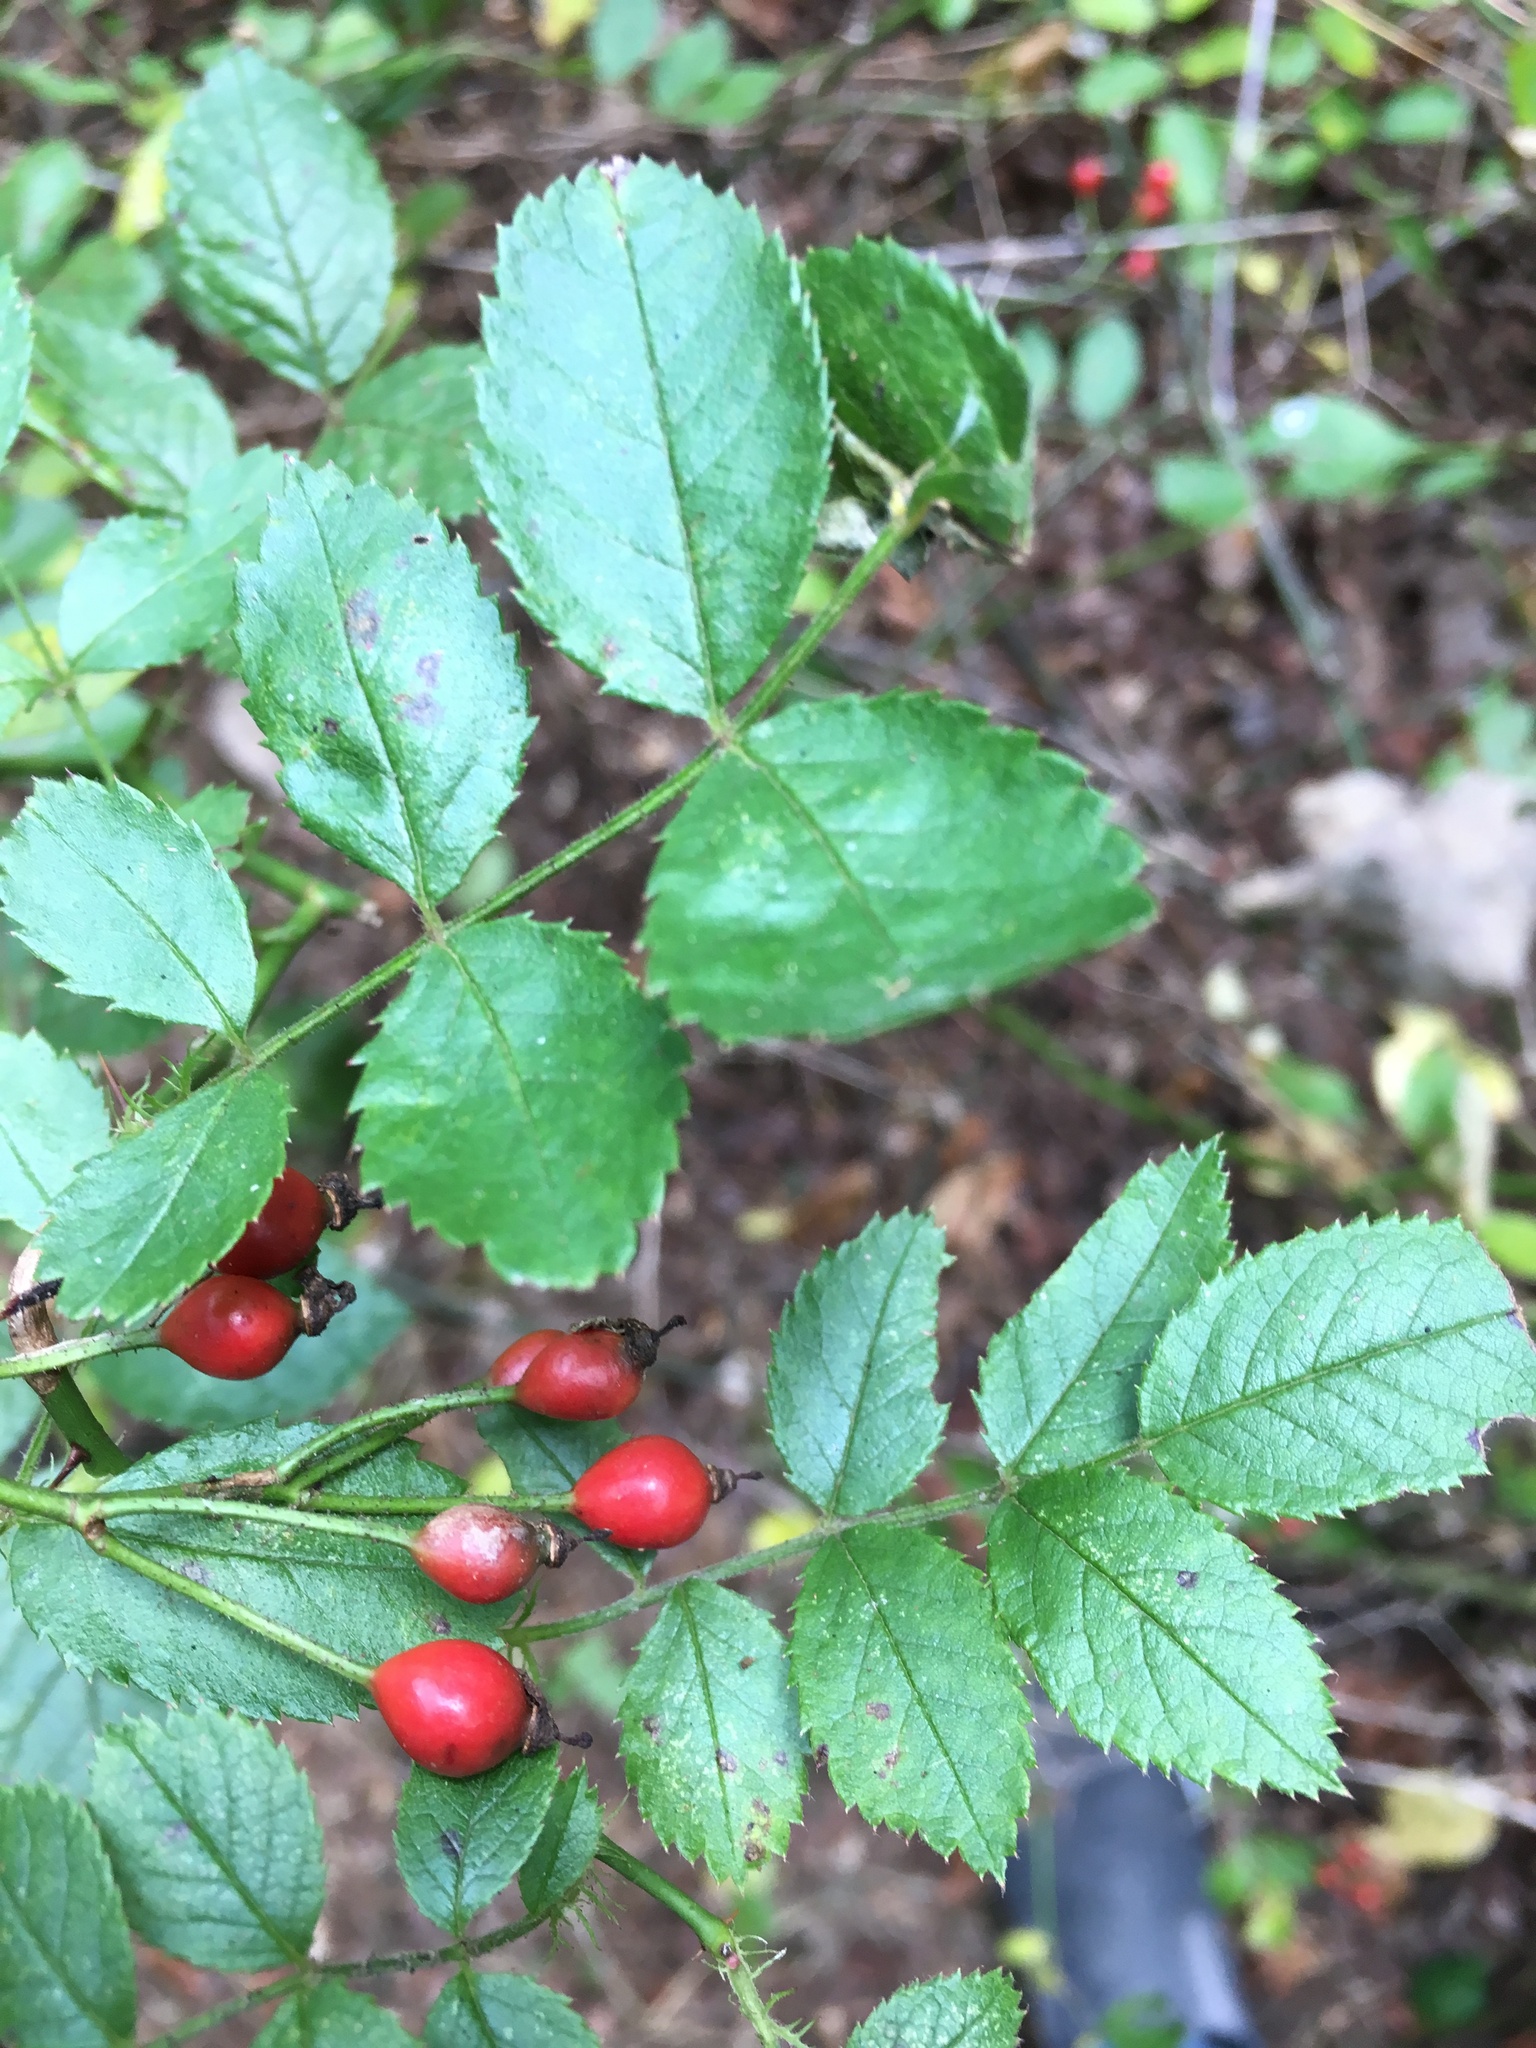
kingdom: Plantae
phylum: Tracheophyta
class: Magnoliopsida
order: Rosales
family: Rosaceae
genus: Rosa
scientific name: Rosa multiflora
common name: Multiflora rose
